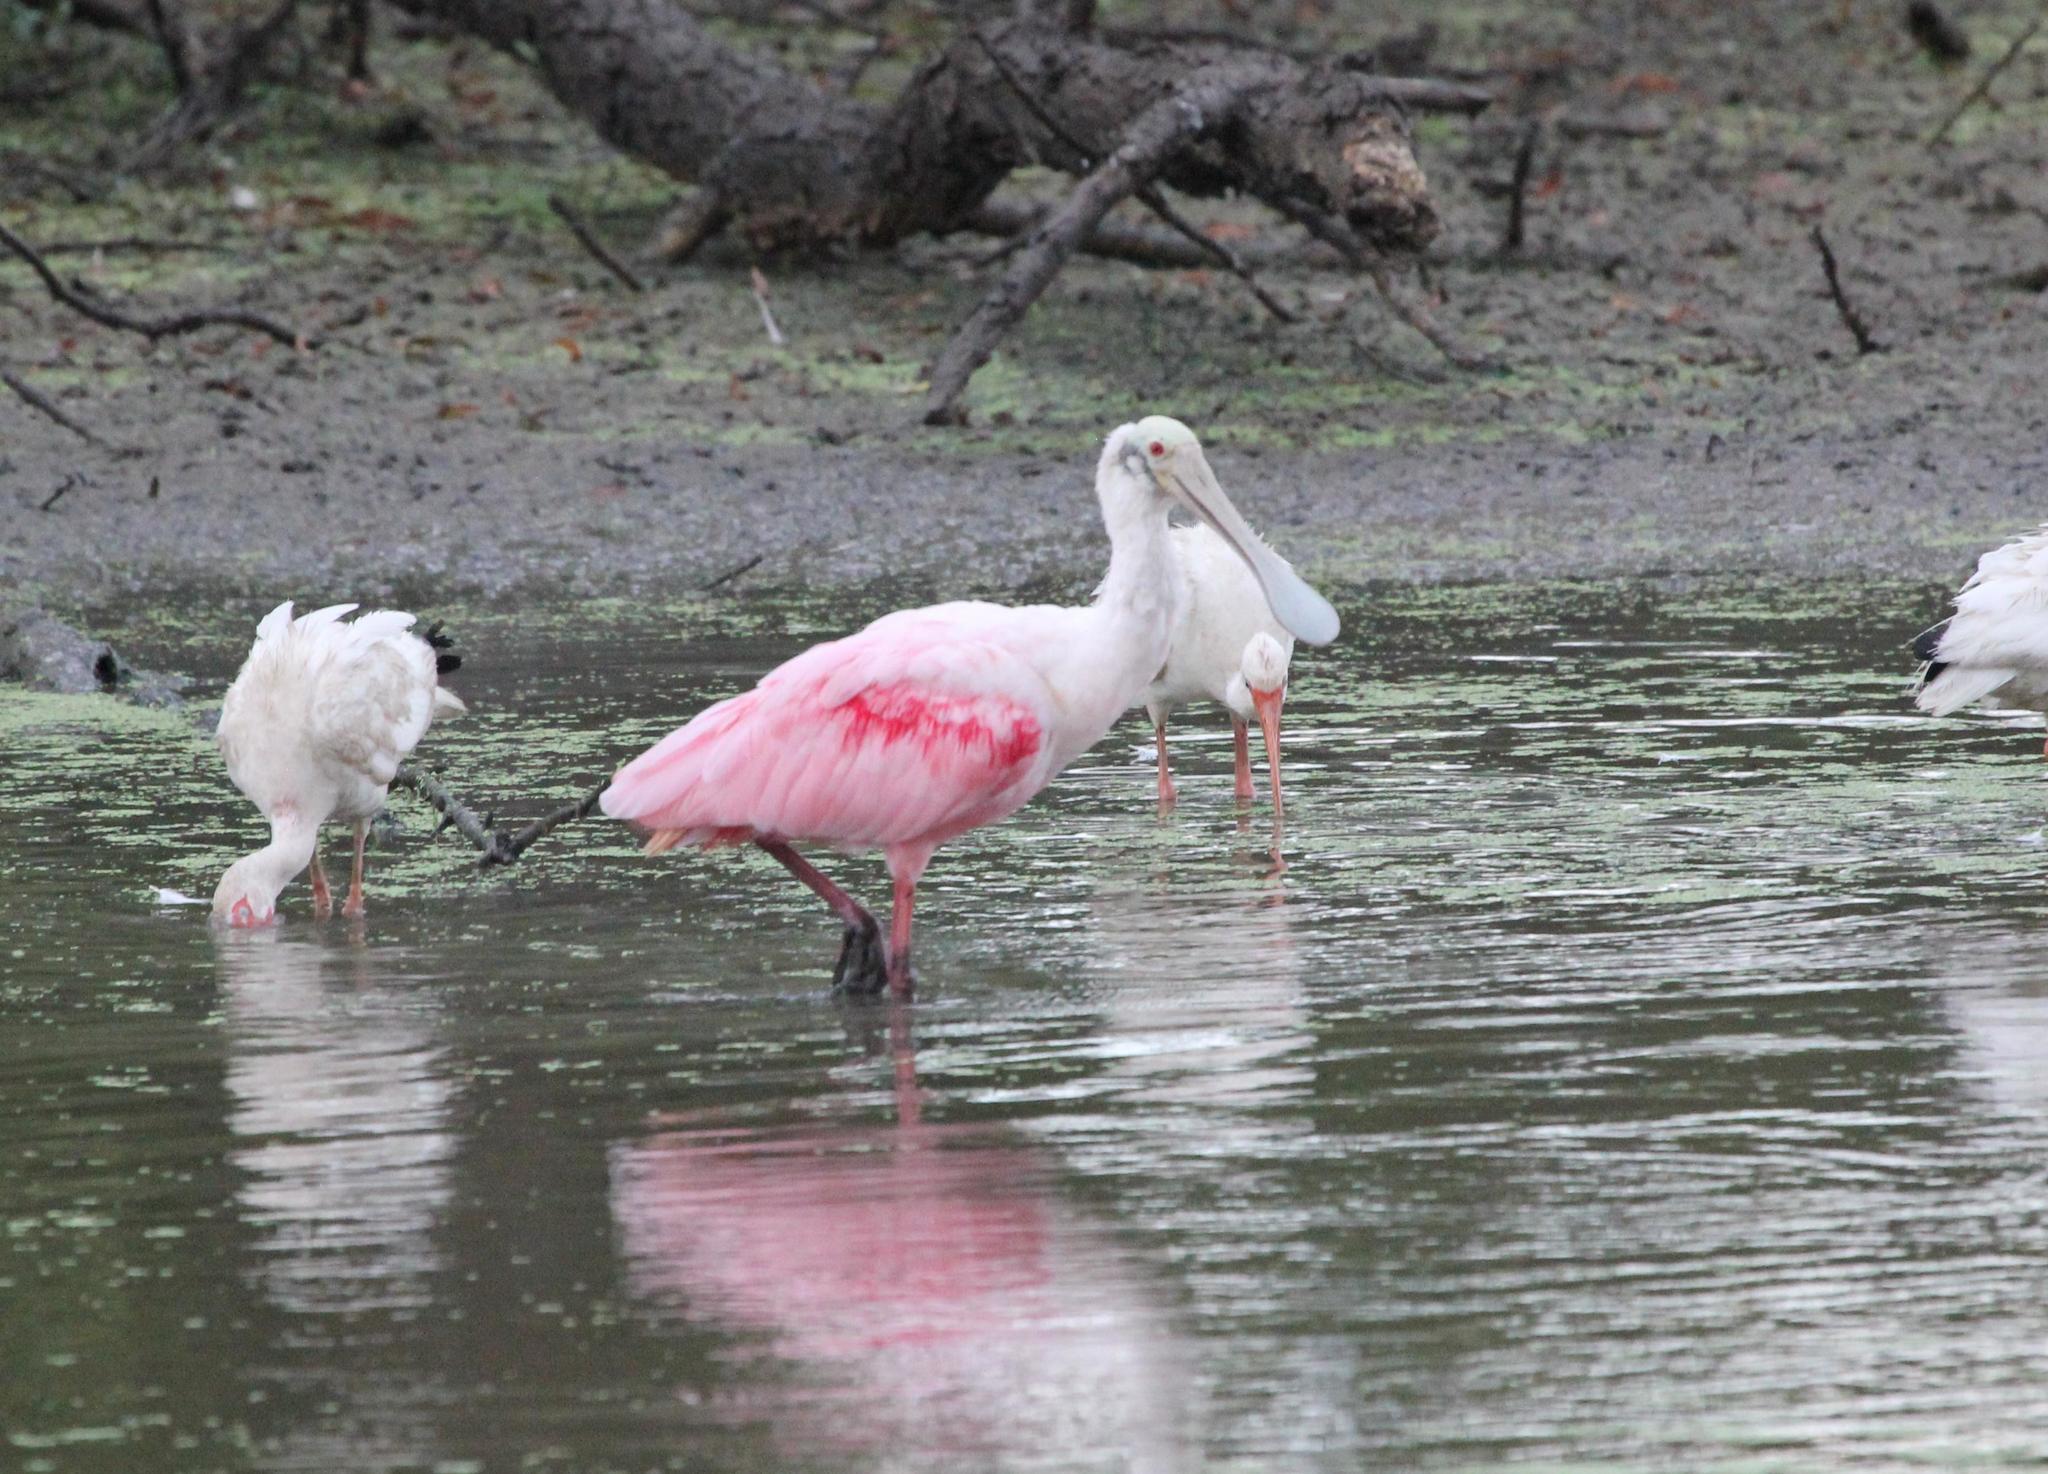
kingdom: Animalia
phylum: Chordata
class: Aves
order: Pelecaniformes
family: Threskiornithidae
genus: Platalea
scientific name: Platalea ajaja
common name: Roseate spoonbill
